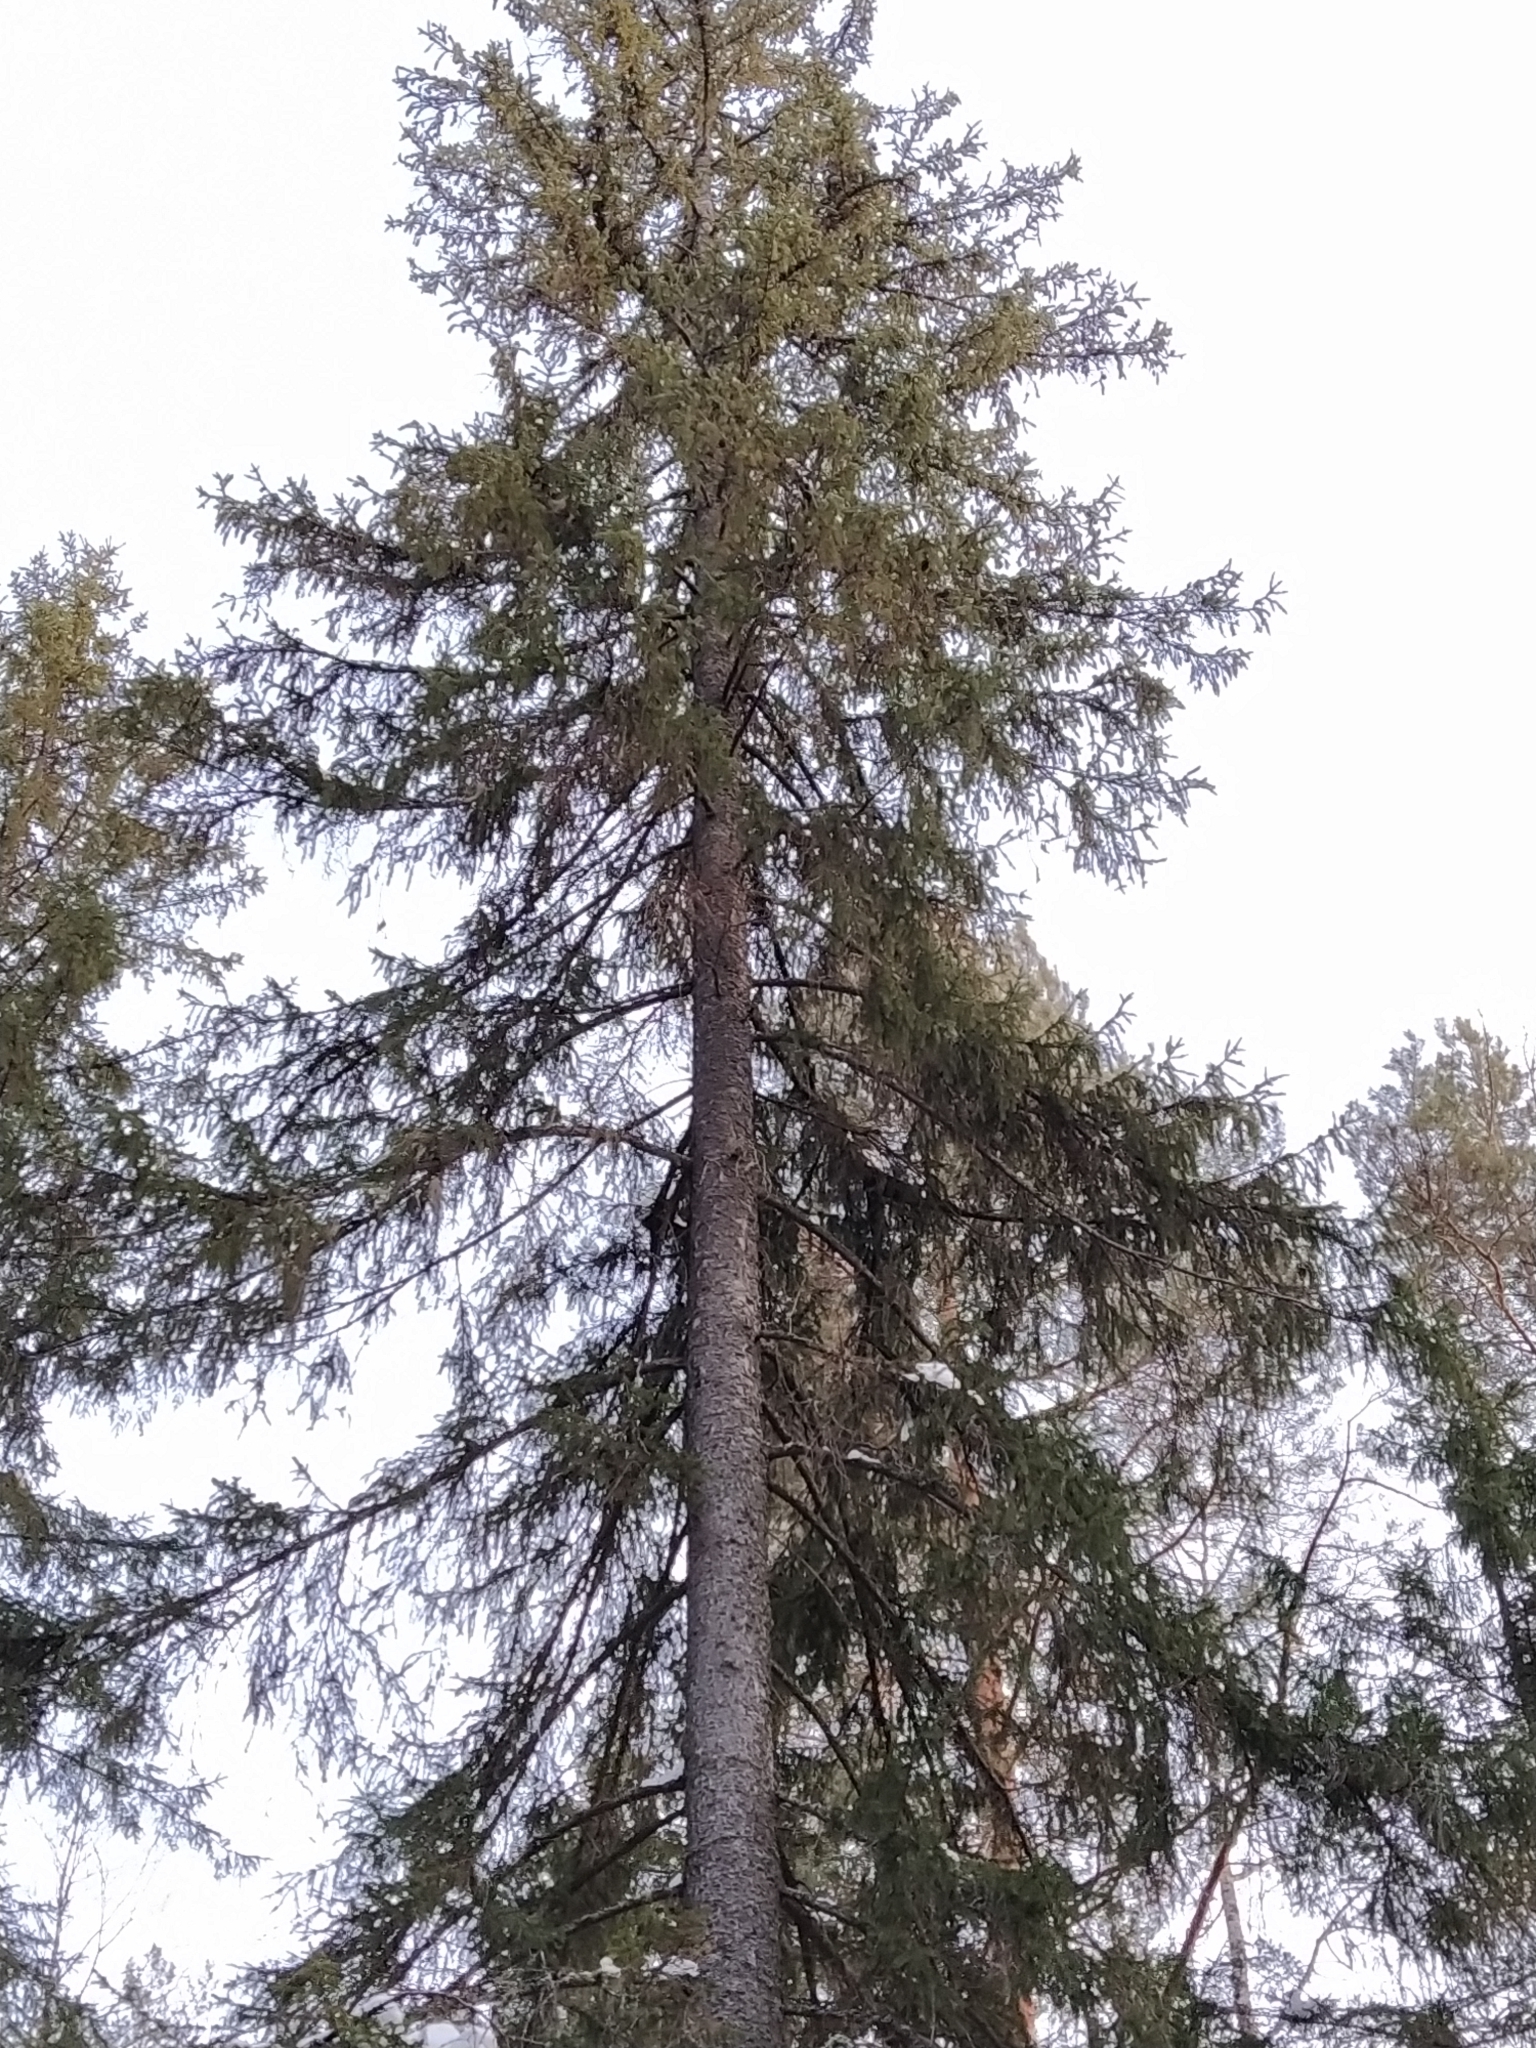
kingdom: Plantae
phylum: Tracheophyta
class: Pinopsida
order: Pinales
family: Pinaceae
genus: Picea
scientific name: Picea abies
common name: Norway spruce
